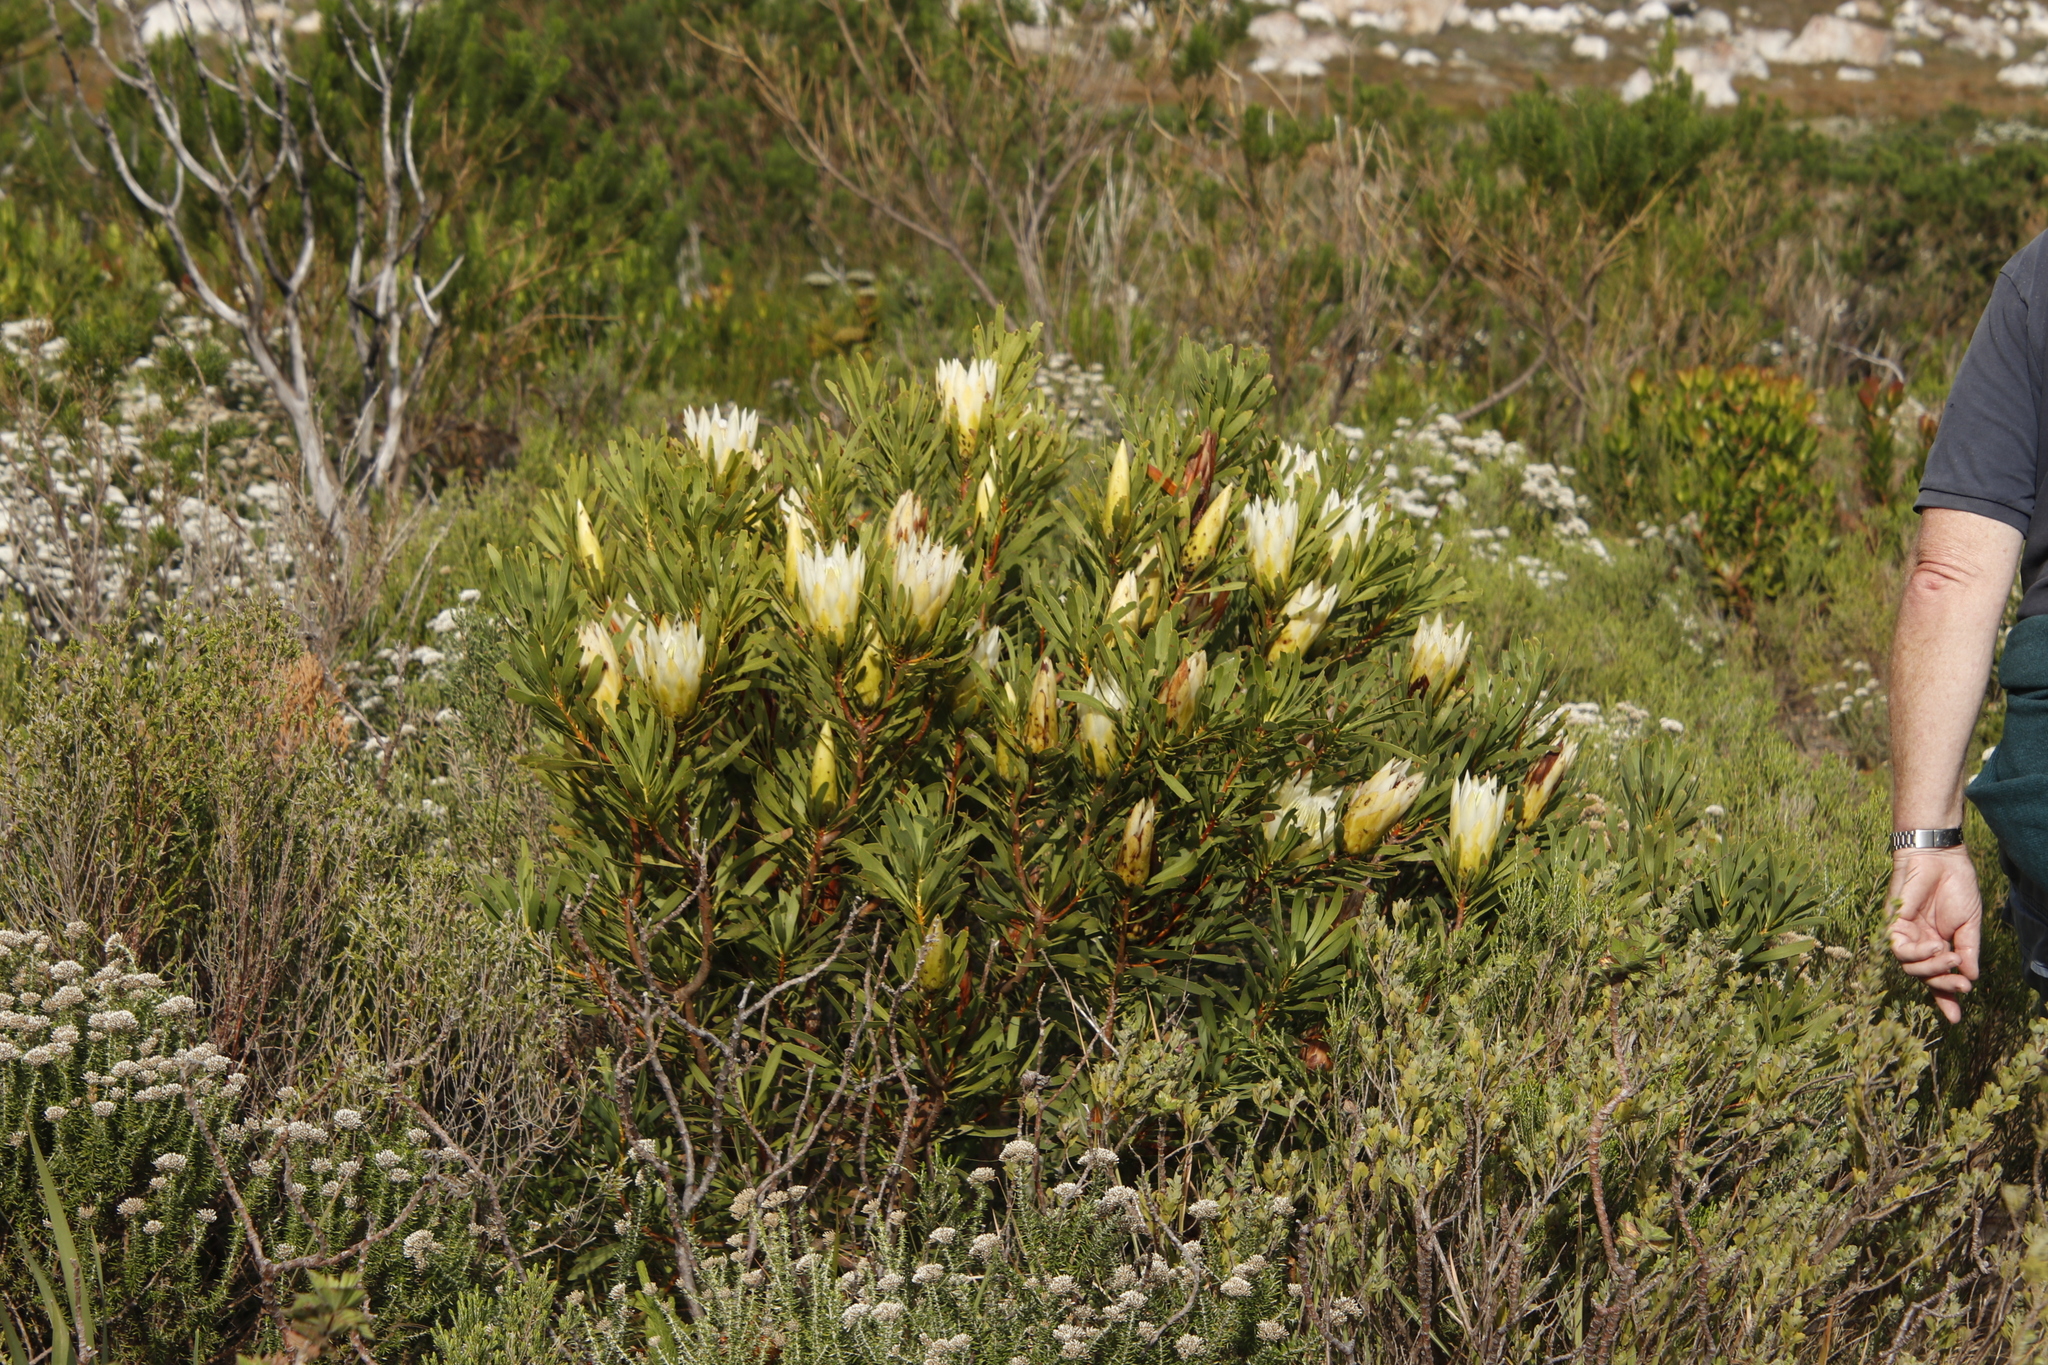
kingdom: Plantae
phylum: Tracheophyta
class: Magnoliopsida
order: Proteales
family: Proteaceae
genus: Protea
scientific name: Protea repens
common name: Sugarbush
